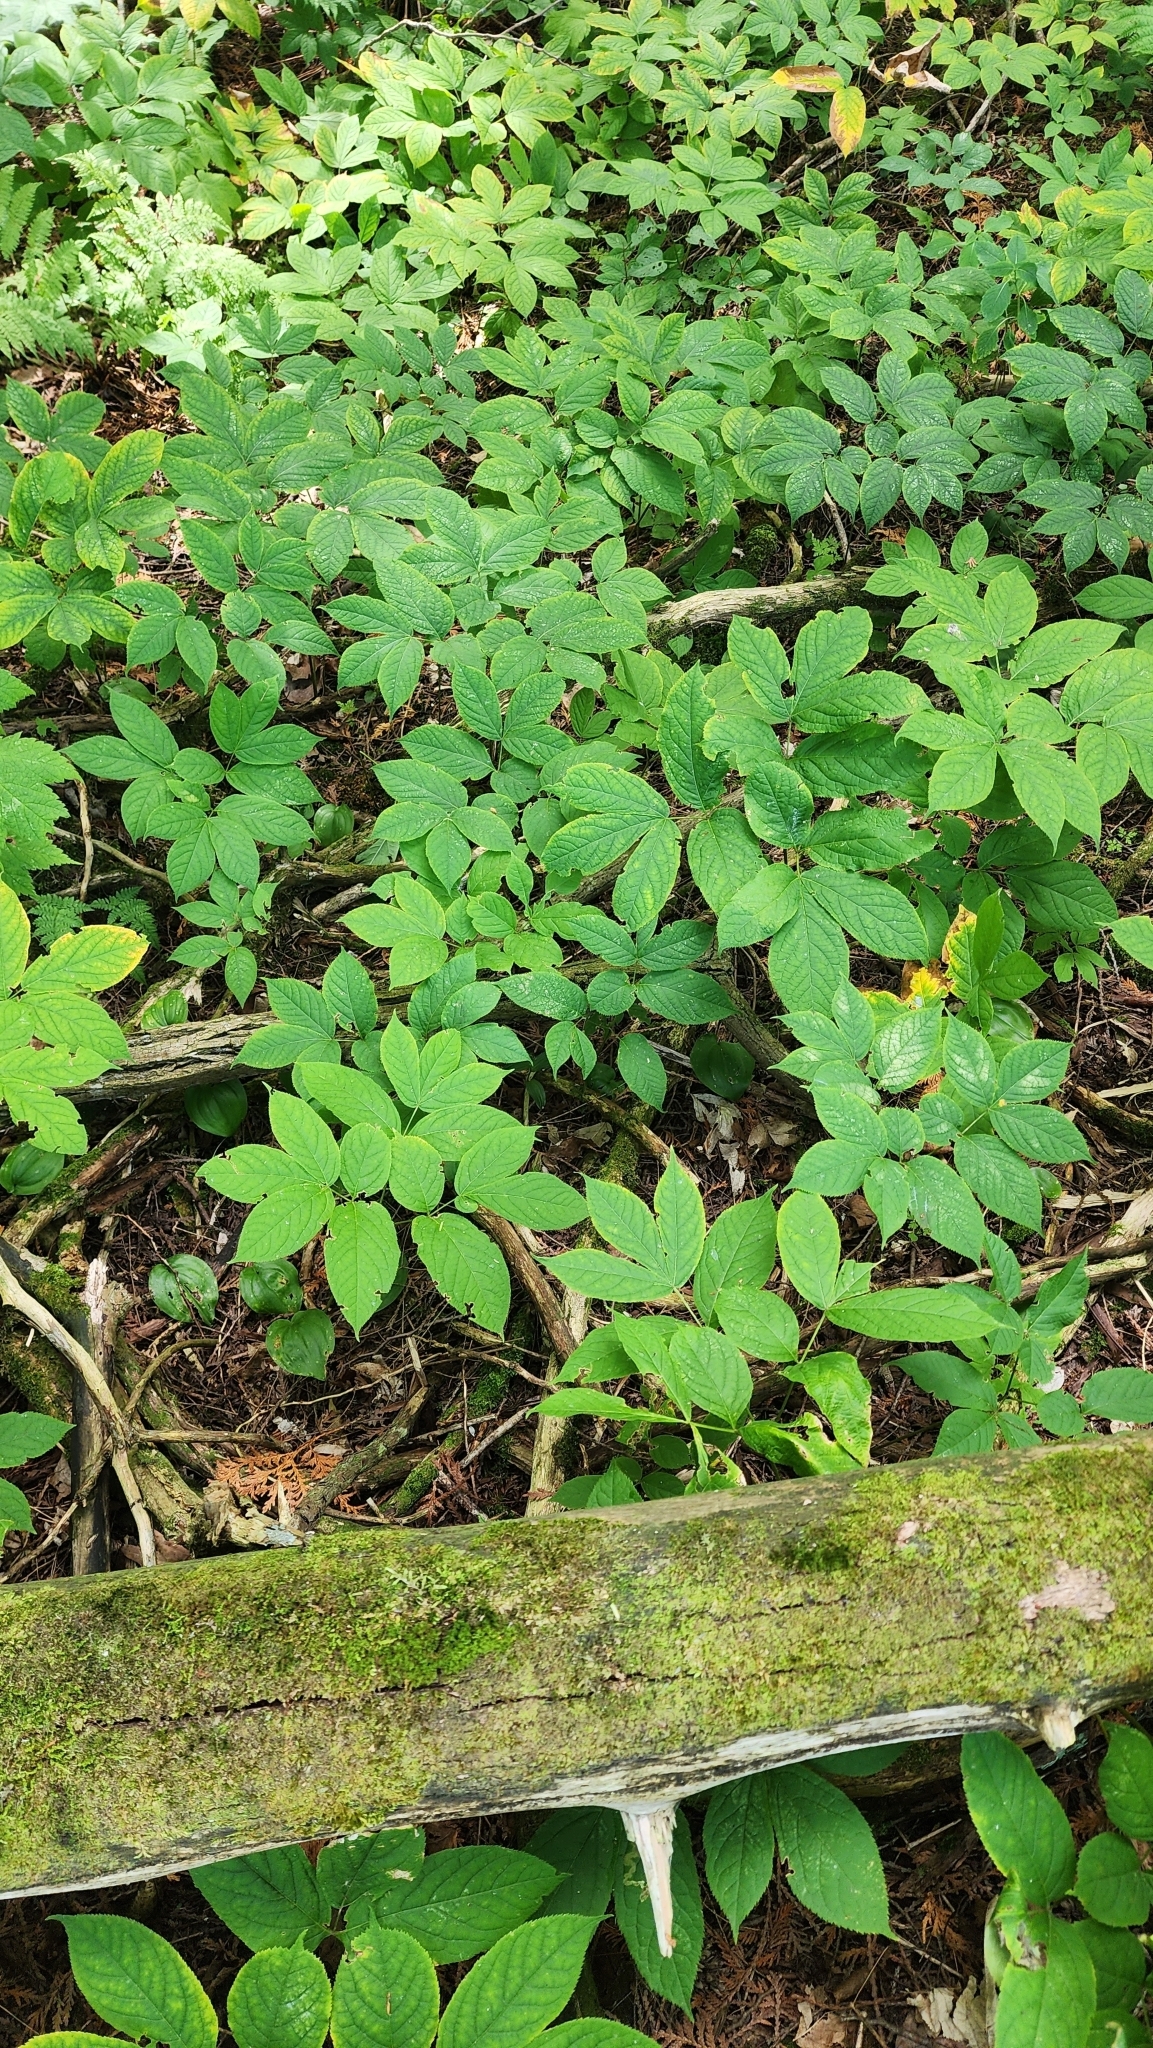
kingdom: Plantae
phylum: Tracheophyta
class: Magnoliopsida
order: Apiales
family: Araliaceae
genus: Aralia
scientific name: Aralia nudicaulis
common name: Wild sarsaparilla
